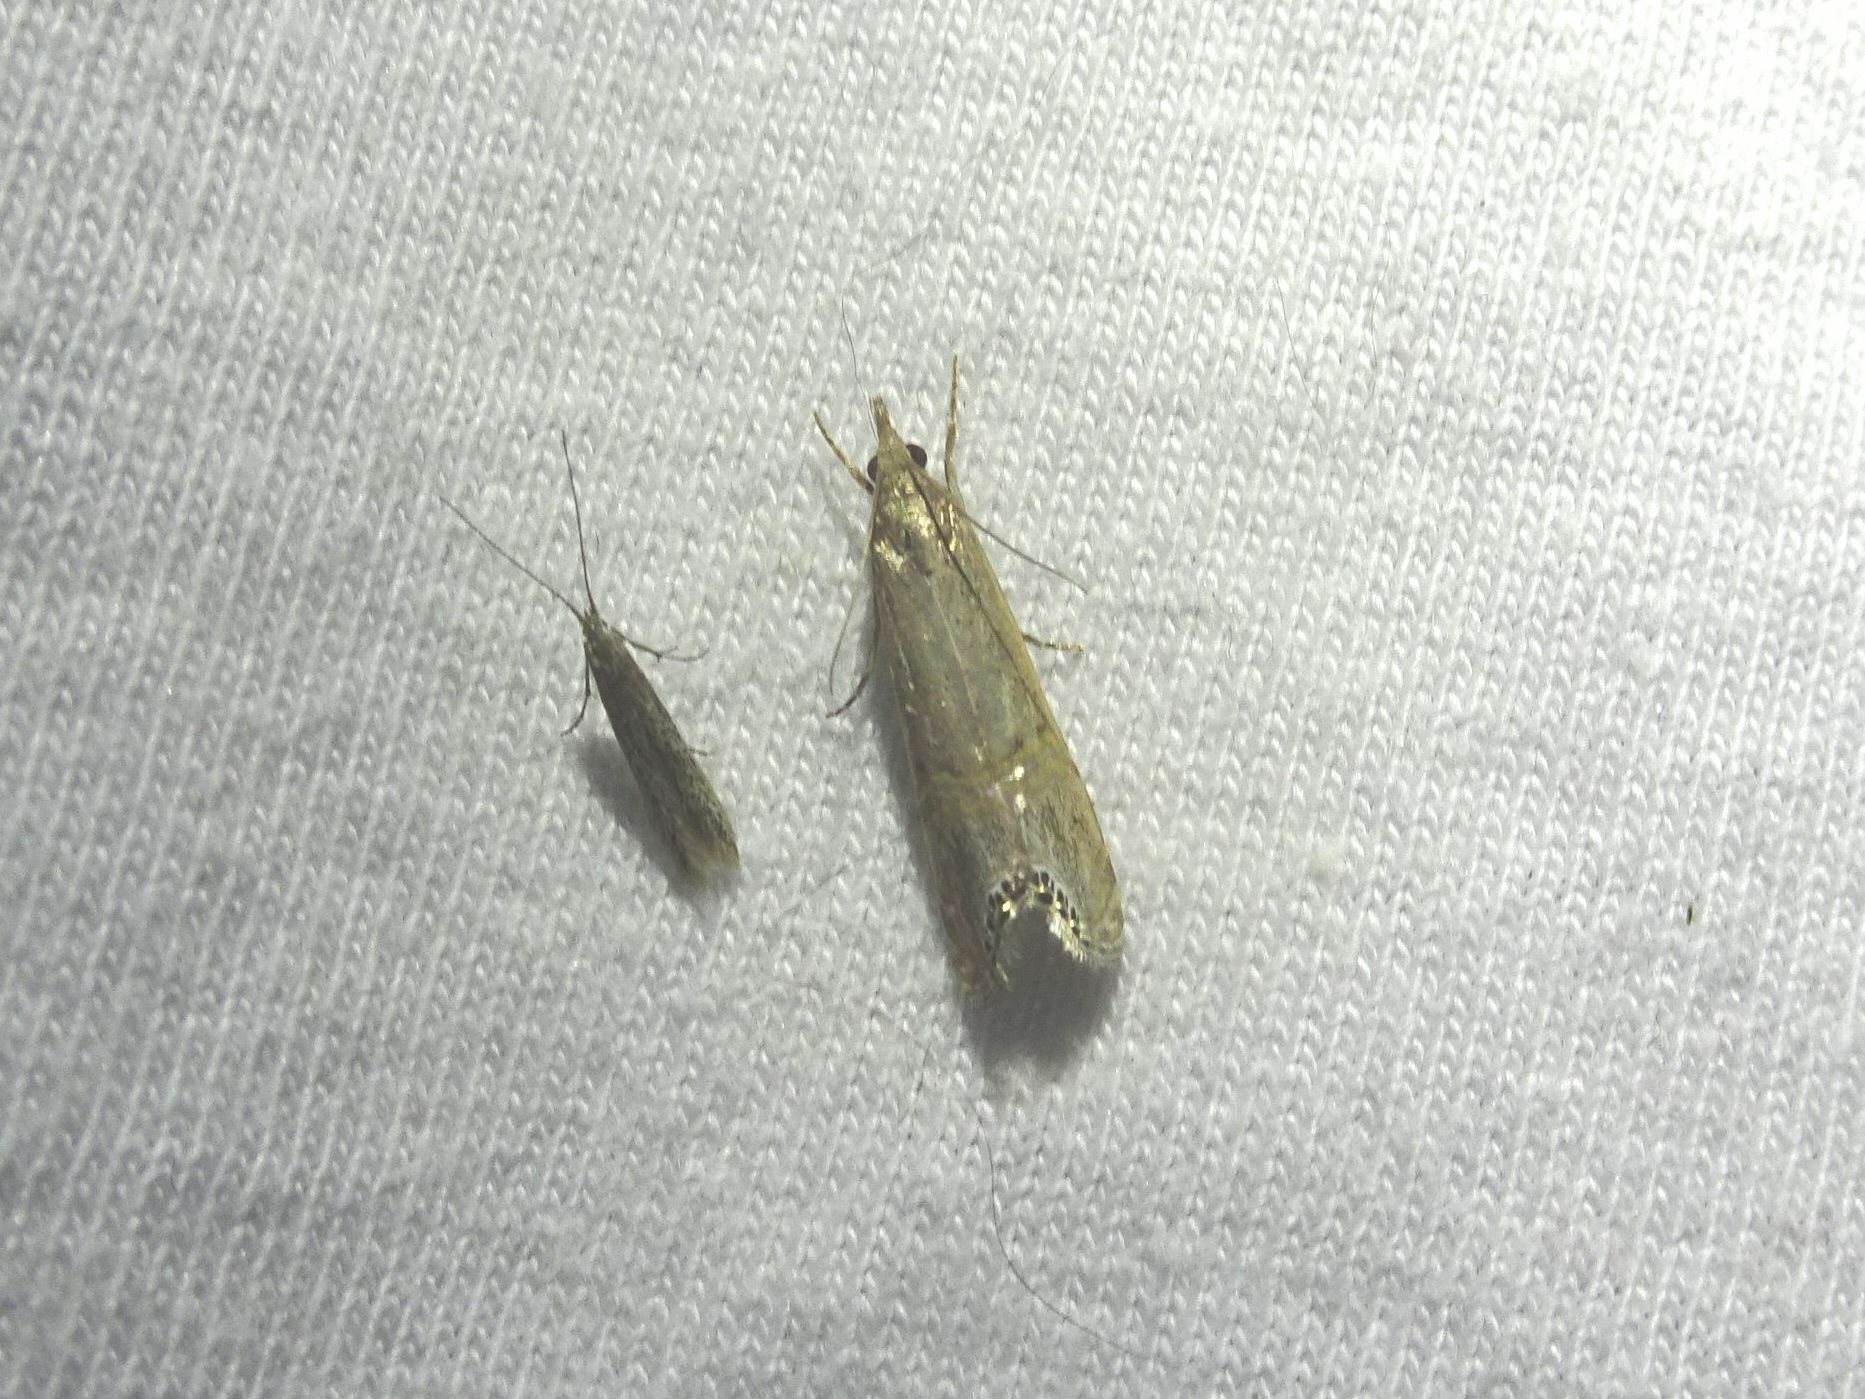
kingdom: Animalia
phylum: Arthropoda
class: Insecta
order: Lepidoptera
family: Crambidae
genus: Euchromius
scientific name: Euchromius ocellea
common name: Necklace veneer moth
